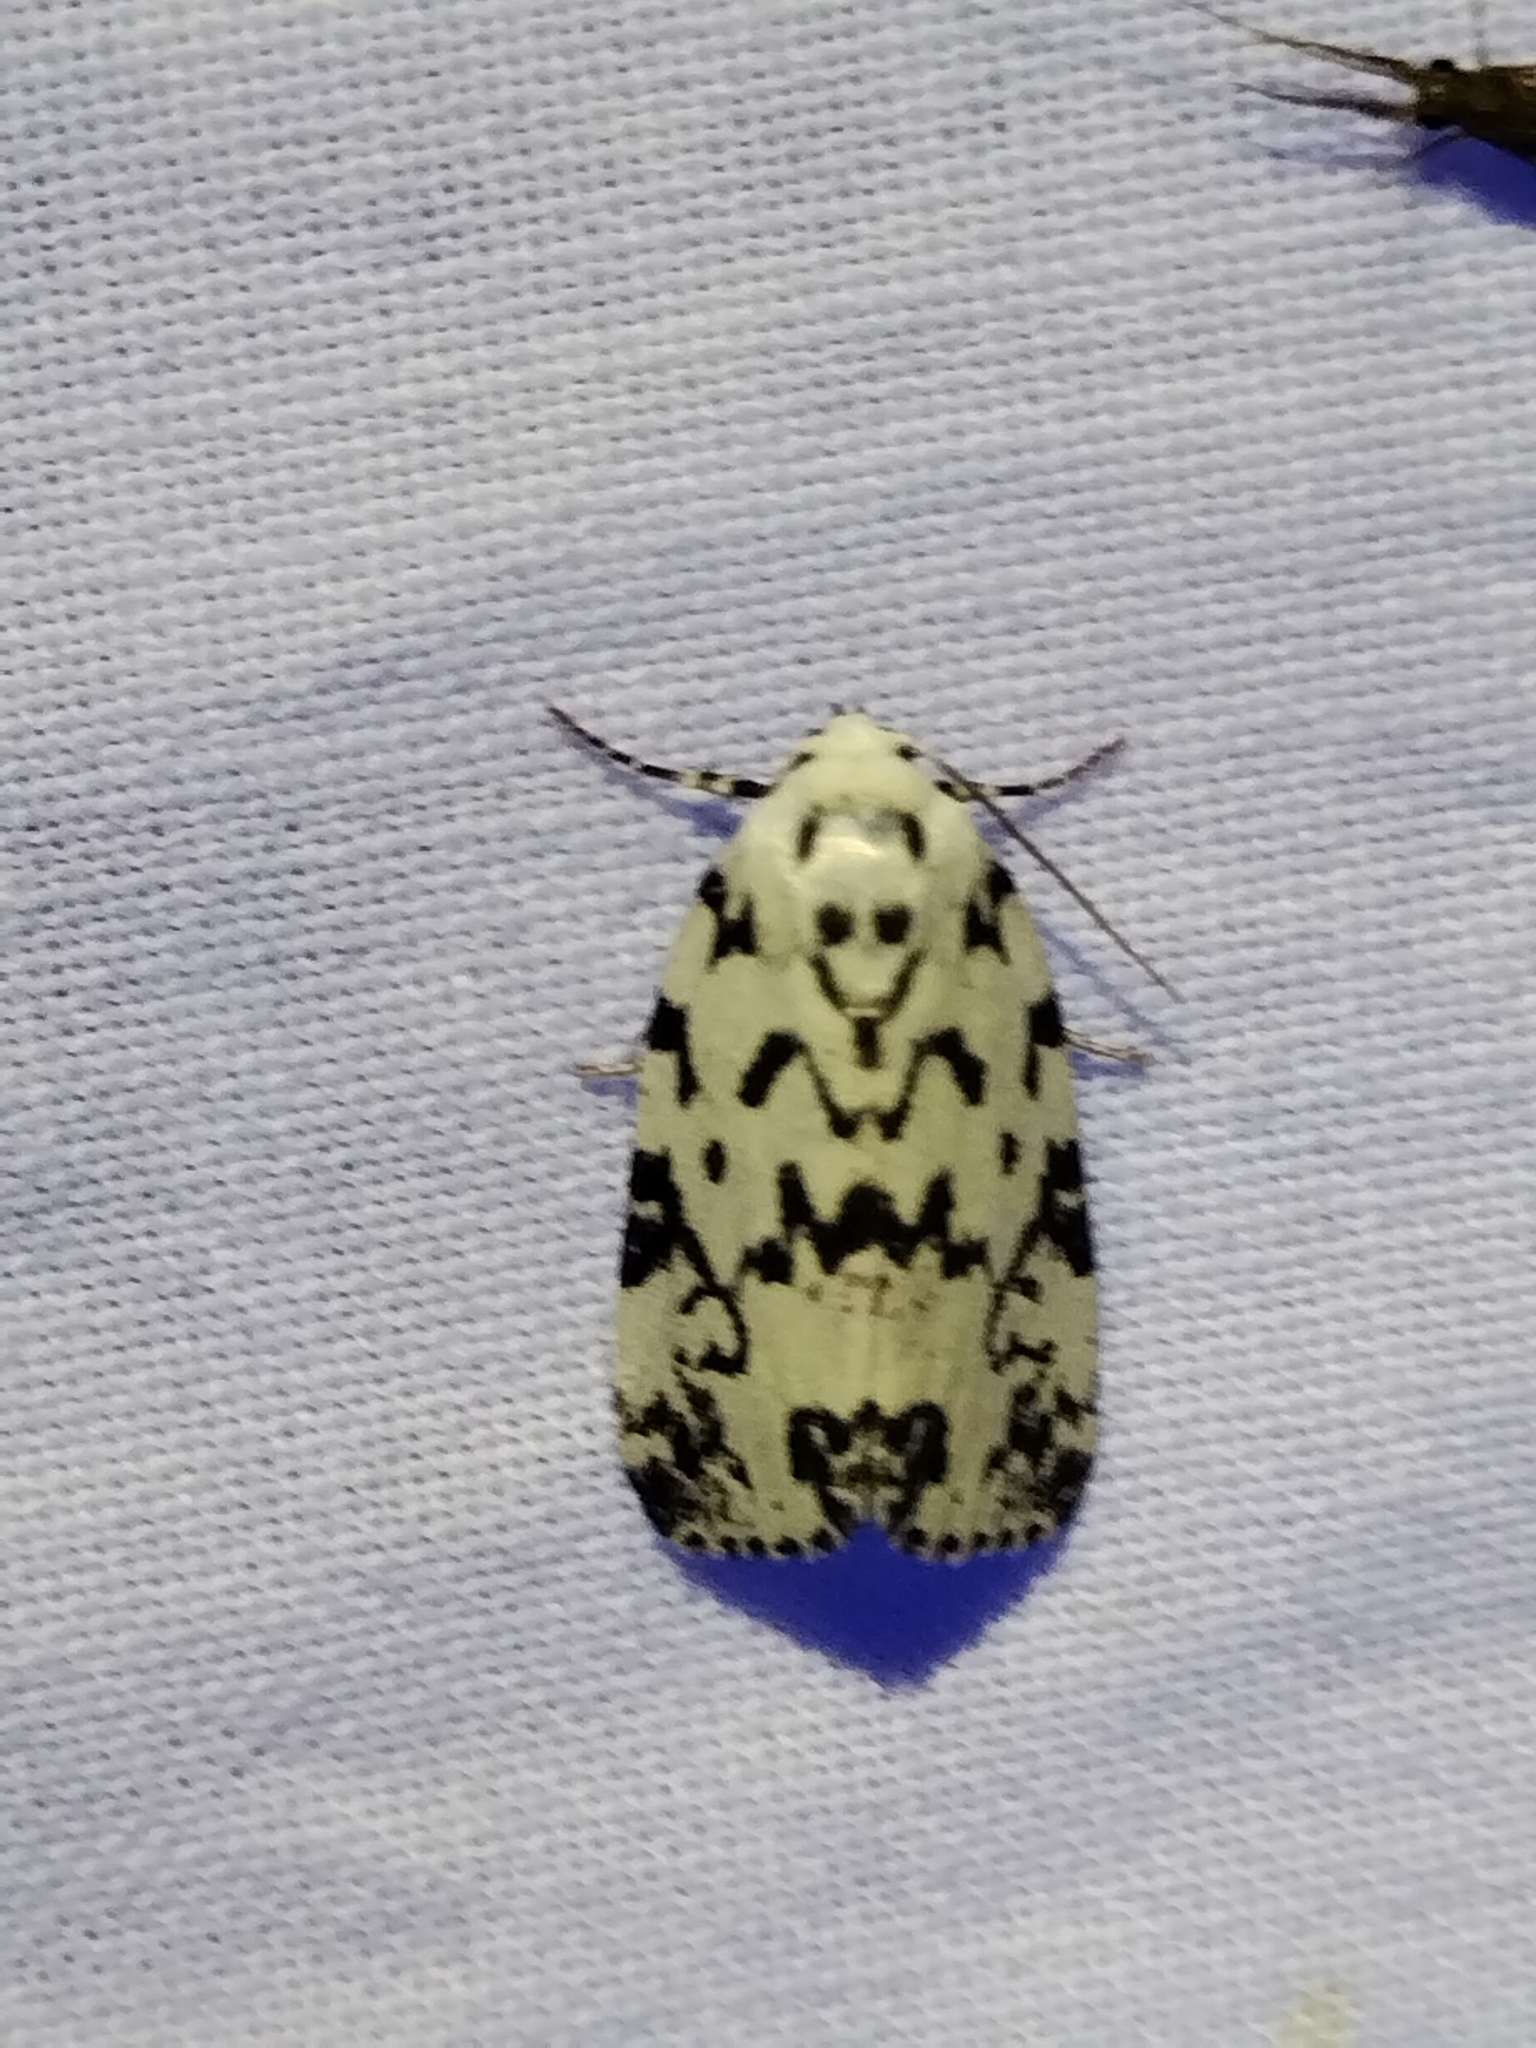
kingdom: Animalia
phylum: Arthropoda
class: Insecta
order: Lepidoptera
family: Noctuidae
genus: Polygrammate
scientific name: Polygrammate hebraeicum
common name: Hebrew moth
